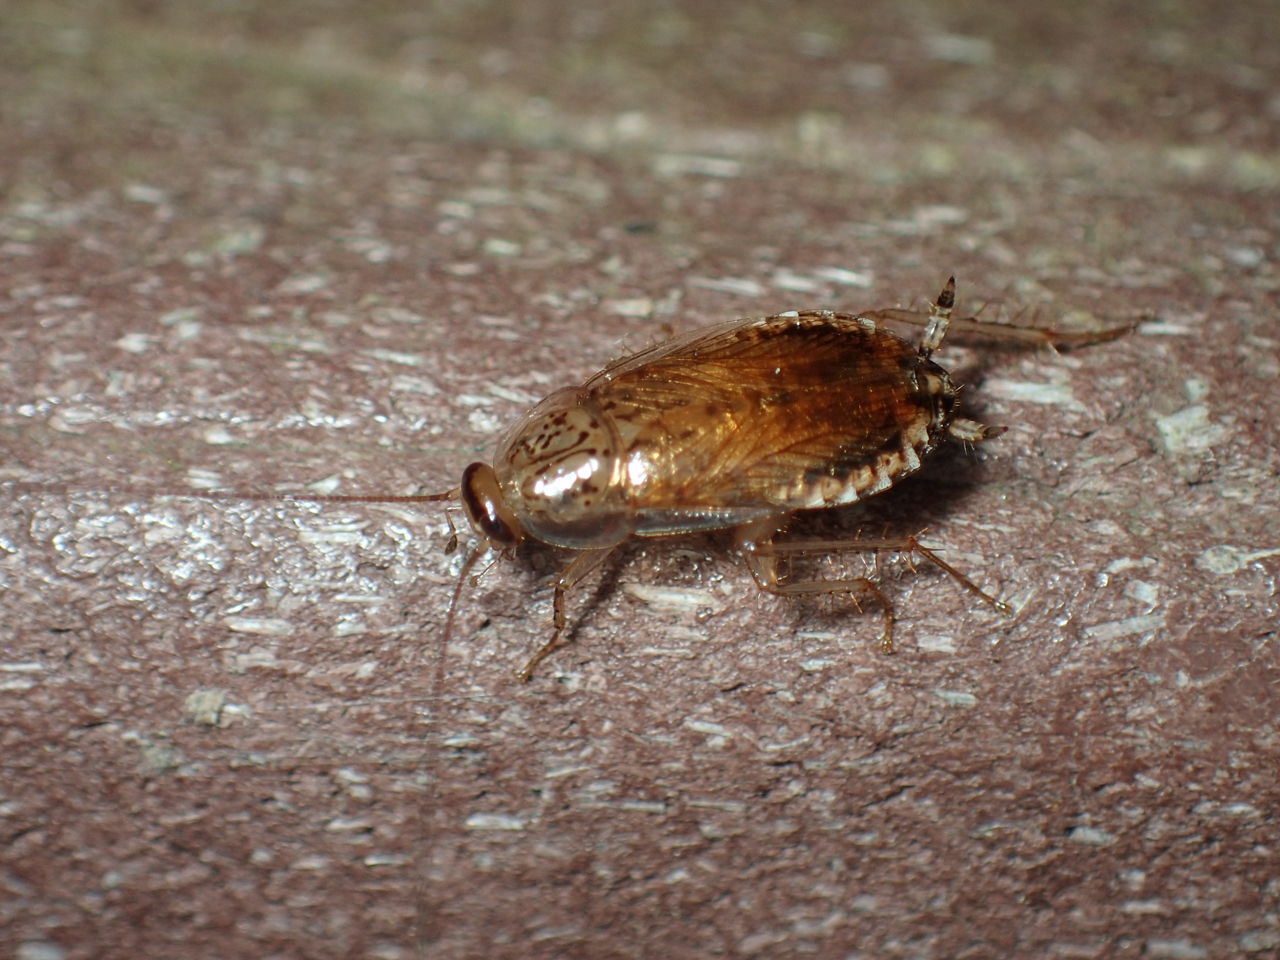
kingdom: Animalia
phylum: Arthropoda
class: Insecta
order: Blattodea
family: Ectobiidae
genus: Cariblatta
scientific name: Cariblatta lutea
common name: Small yellow cockroach
